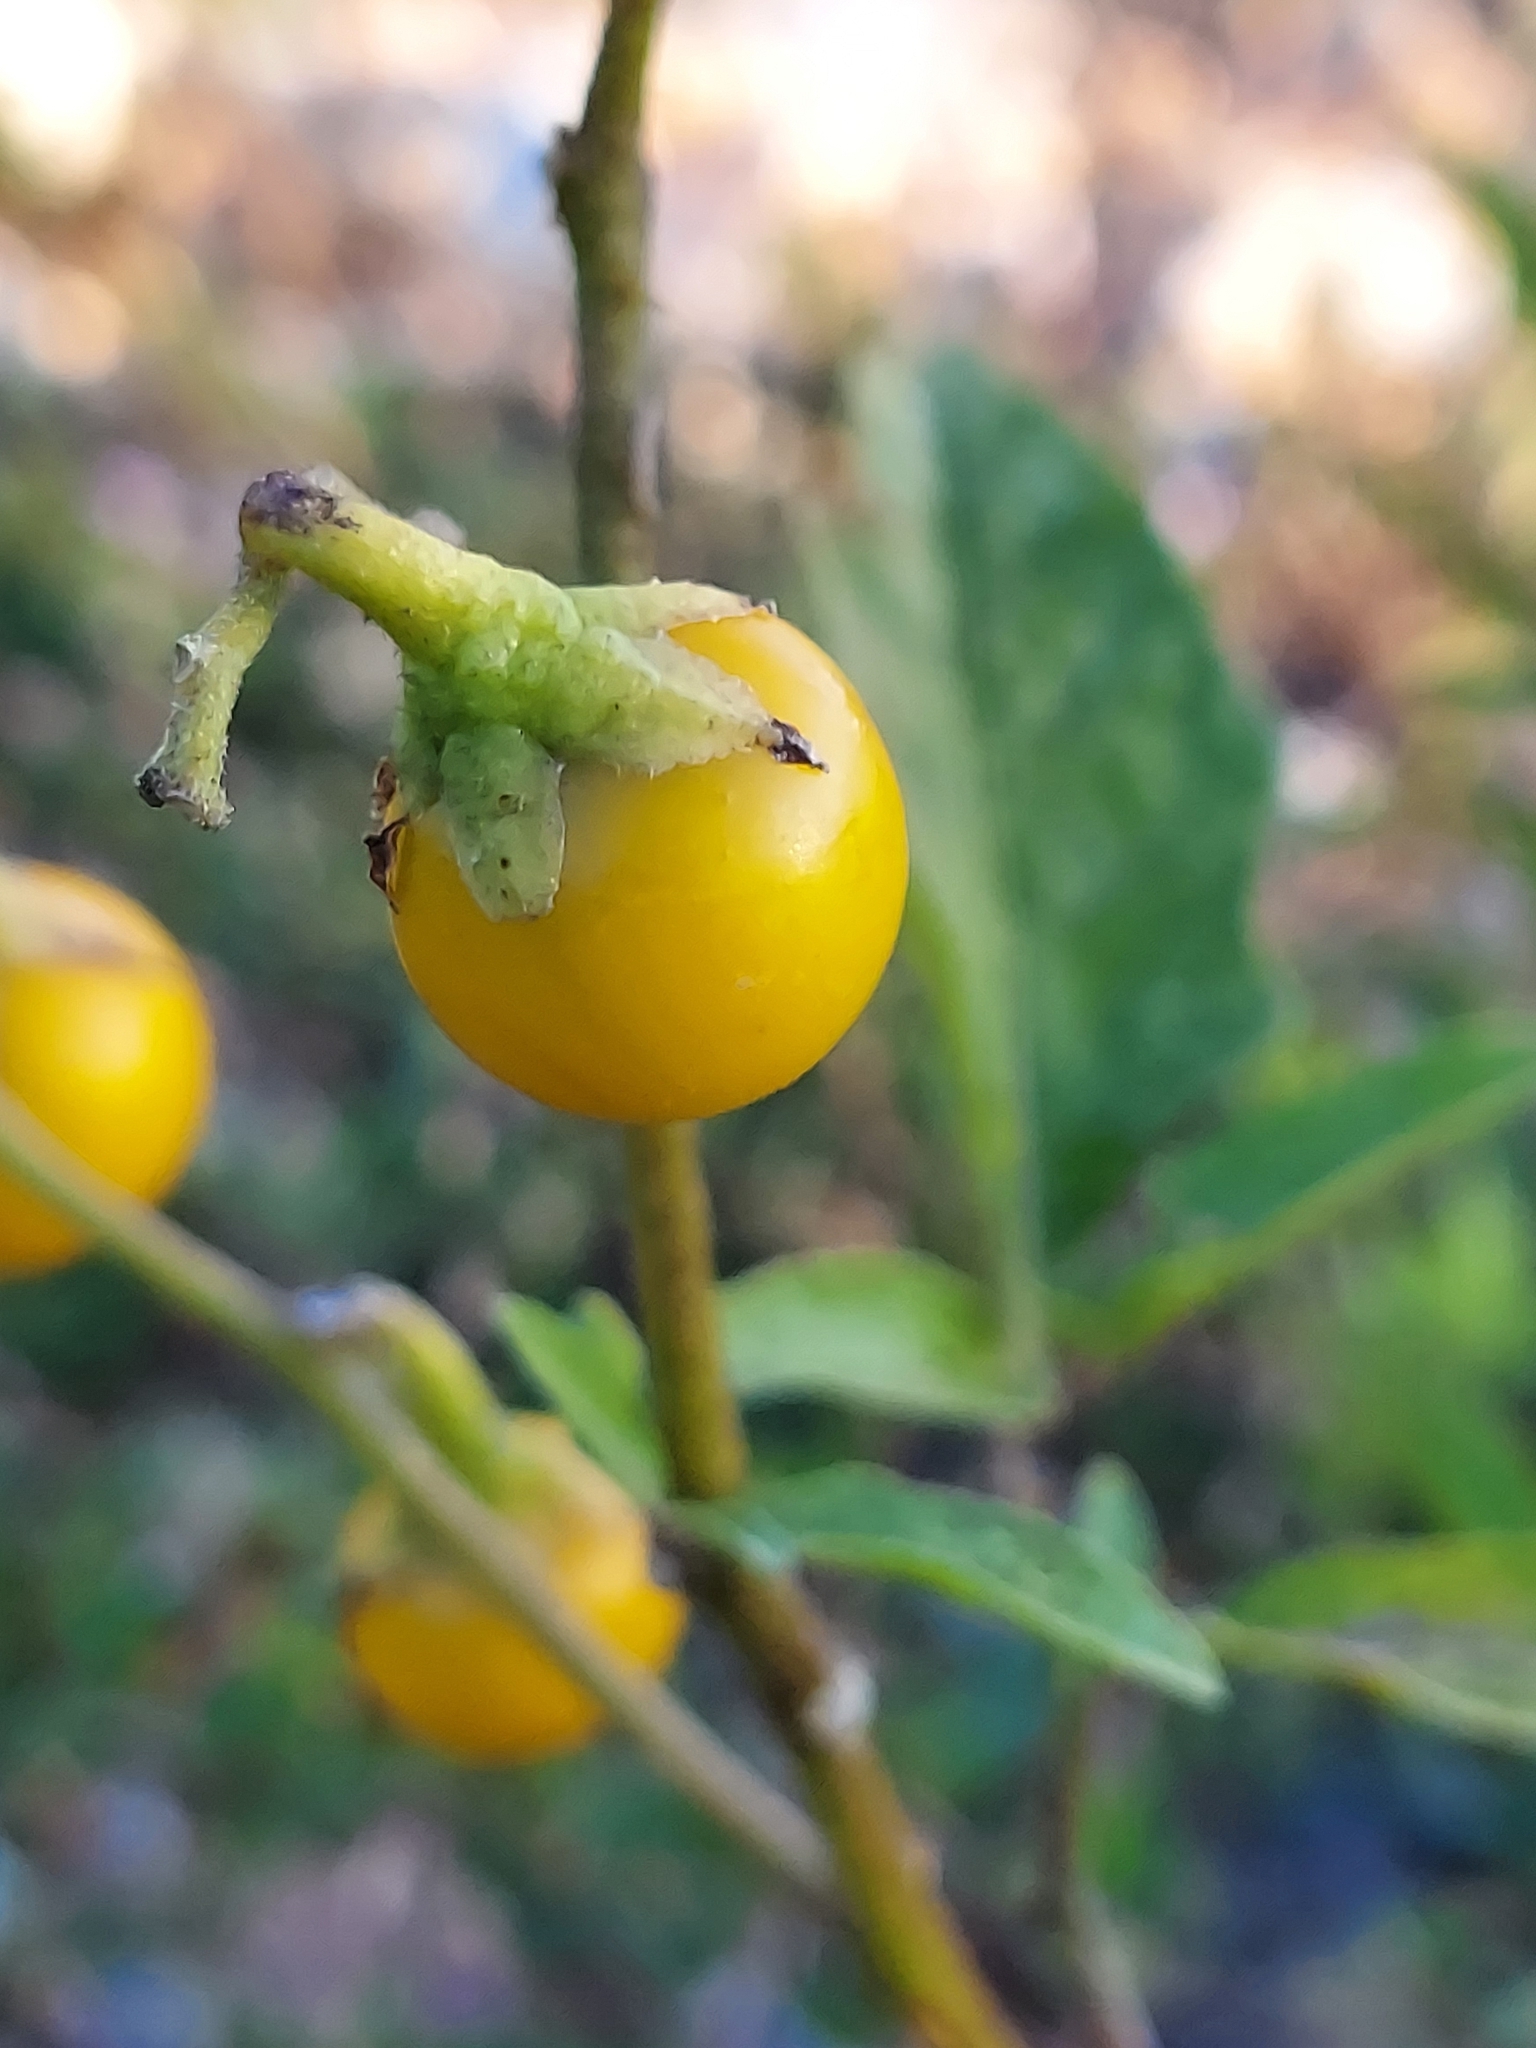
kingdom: Plantae
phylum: Tracheophyta
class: Magnoliopsida
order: Solanales
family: Solanaceae
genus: Solanum
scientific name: Solanum carolinense
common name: Horse-nettle
